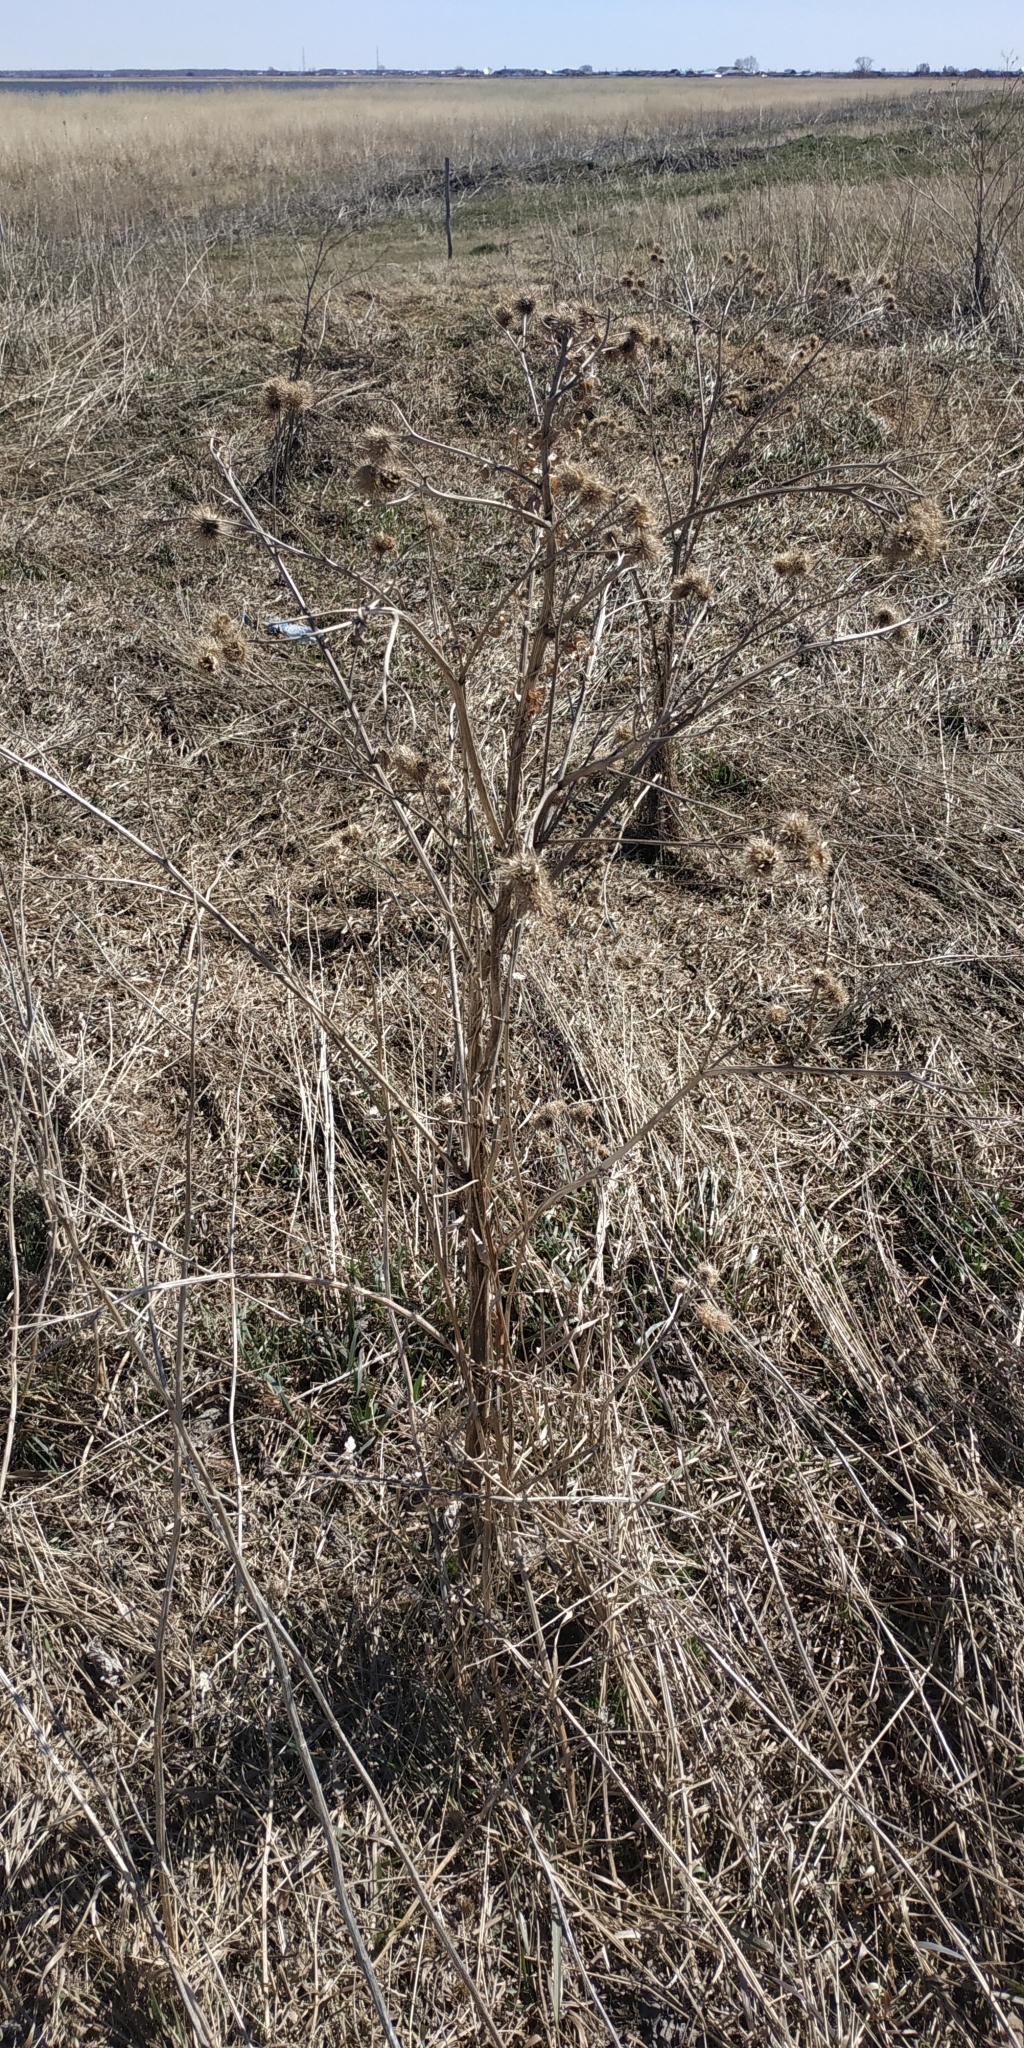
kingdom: Plantae
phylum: Tracheophyta
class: Magnoliopsida
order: Asterales
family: Asteraceae
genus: Arctium
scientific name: Arctium tomentosum
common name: Woolly burdock
